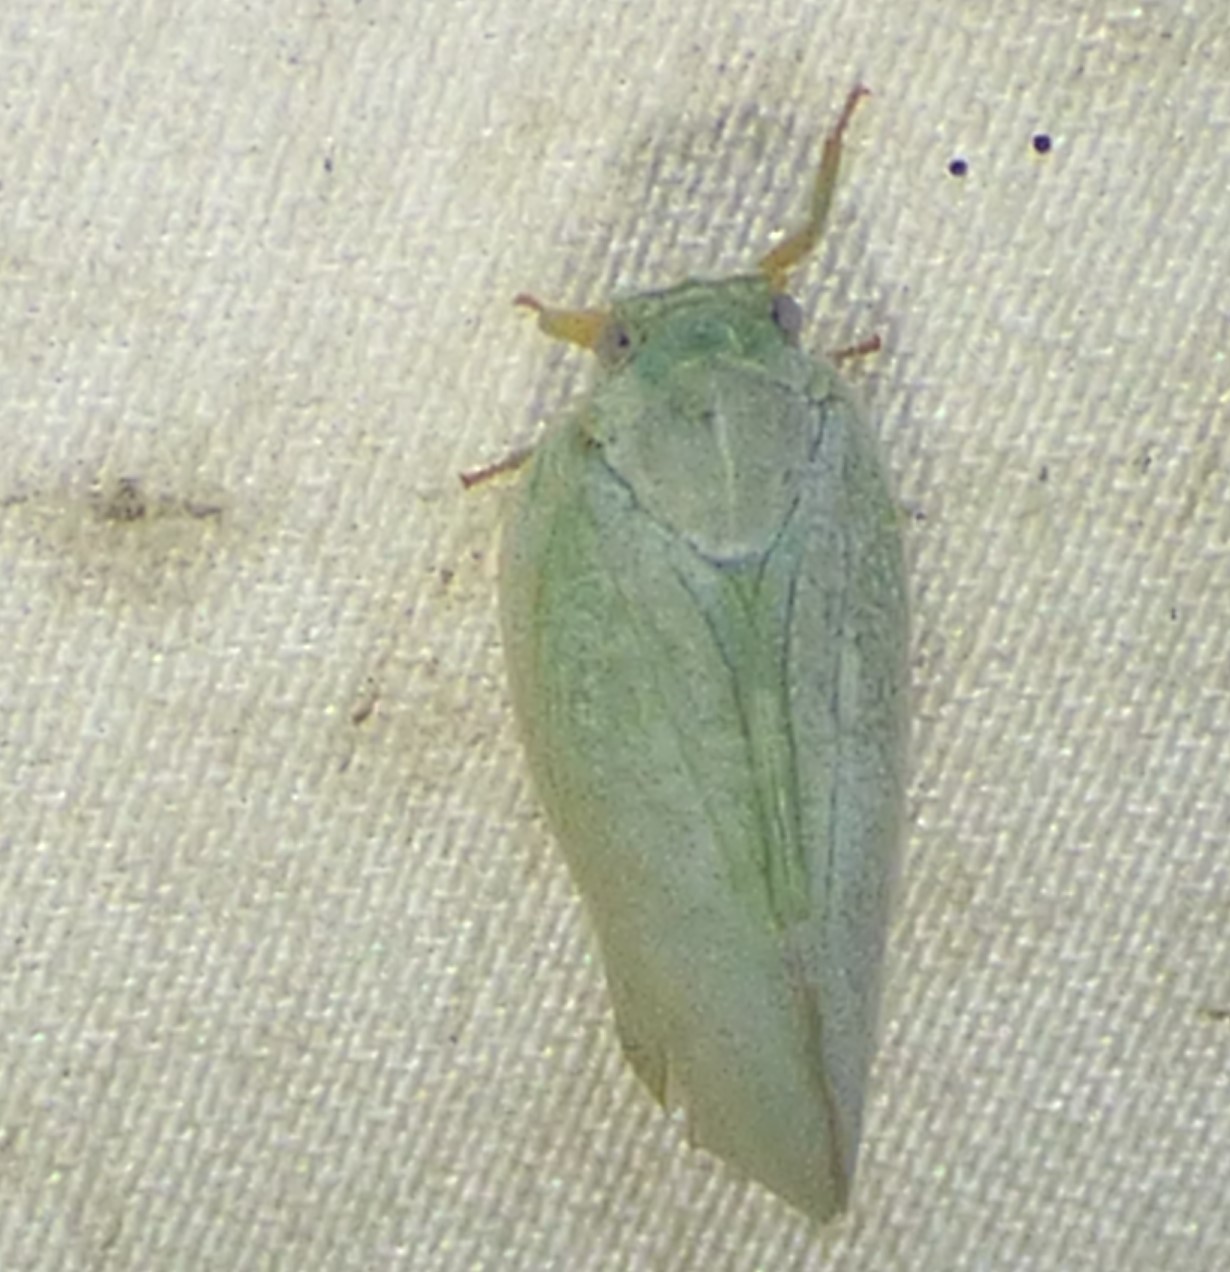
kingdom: Animalia
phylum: Arthropoda
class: Insecta
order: Hemiptera
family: Flatidae
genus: Flatormenis
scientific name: Flatormenis proxima
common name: Northern flatid planthopper
